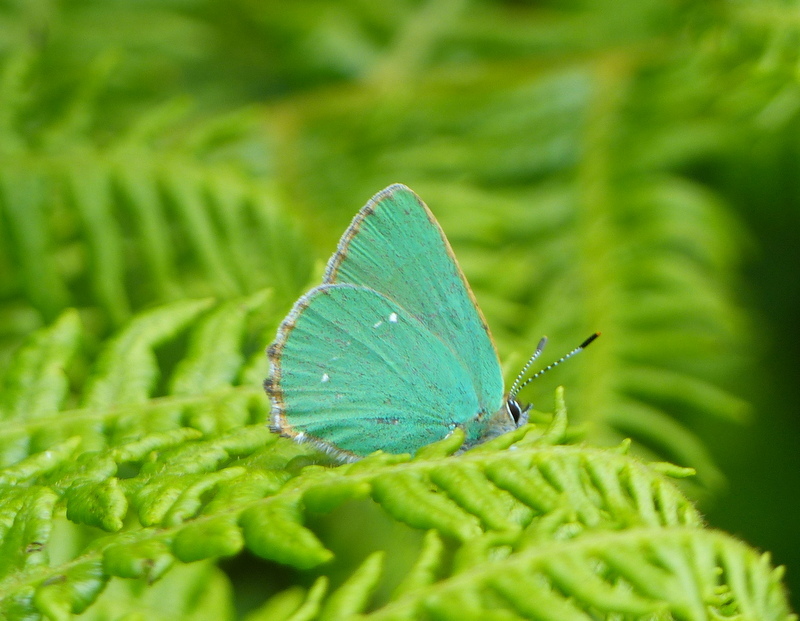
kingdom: Animalia
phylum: Arthropoda
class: Insecta
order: Lepidoptera
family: Lycaenidae
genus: Callophrys
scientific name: Callophrys rubi
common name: Green hairstreak
